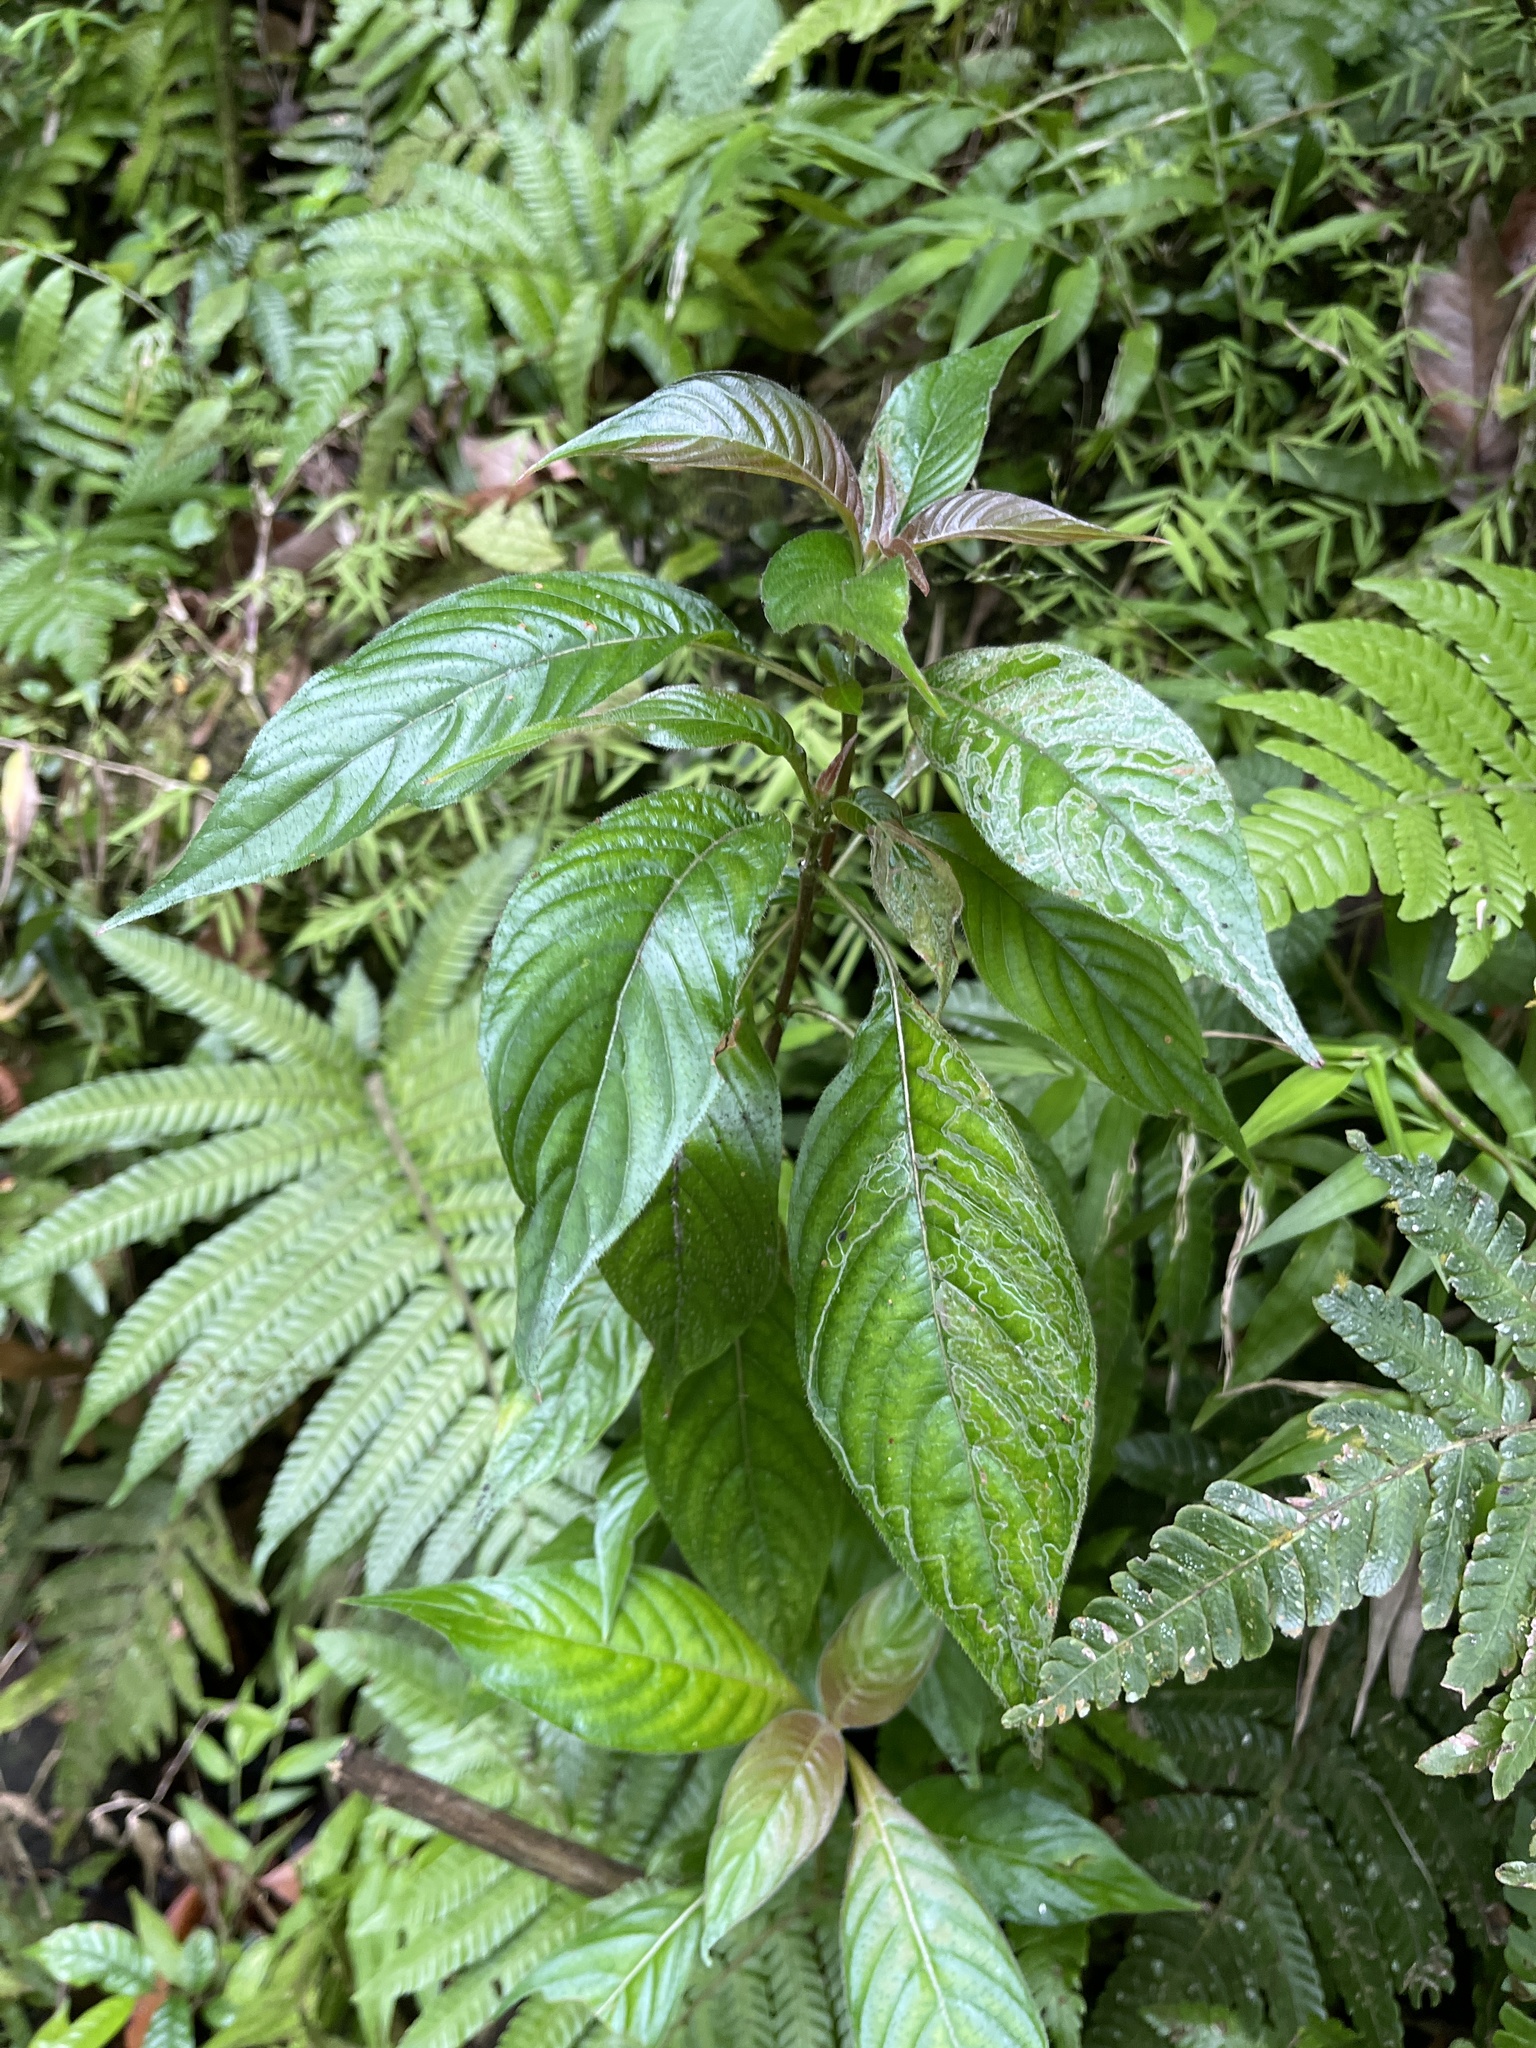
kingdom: Plantae
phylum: Tracheophyta
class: Magnoliopsida
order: Gentianales
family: Rubiaceae
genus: Gonzalagunia
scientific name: Gonzalagunia hirsuta
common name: Mata de mariposa
